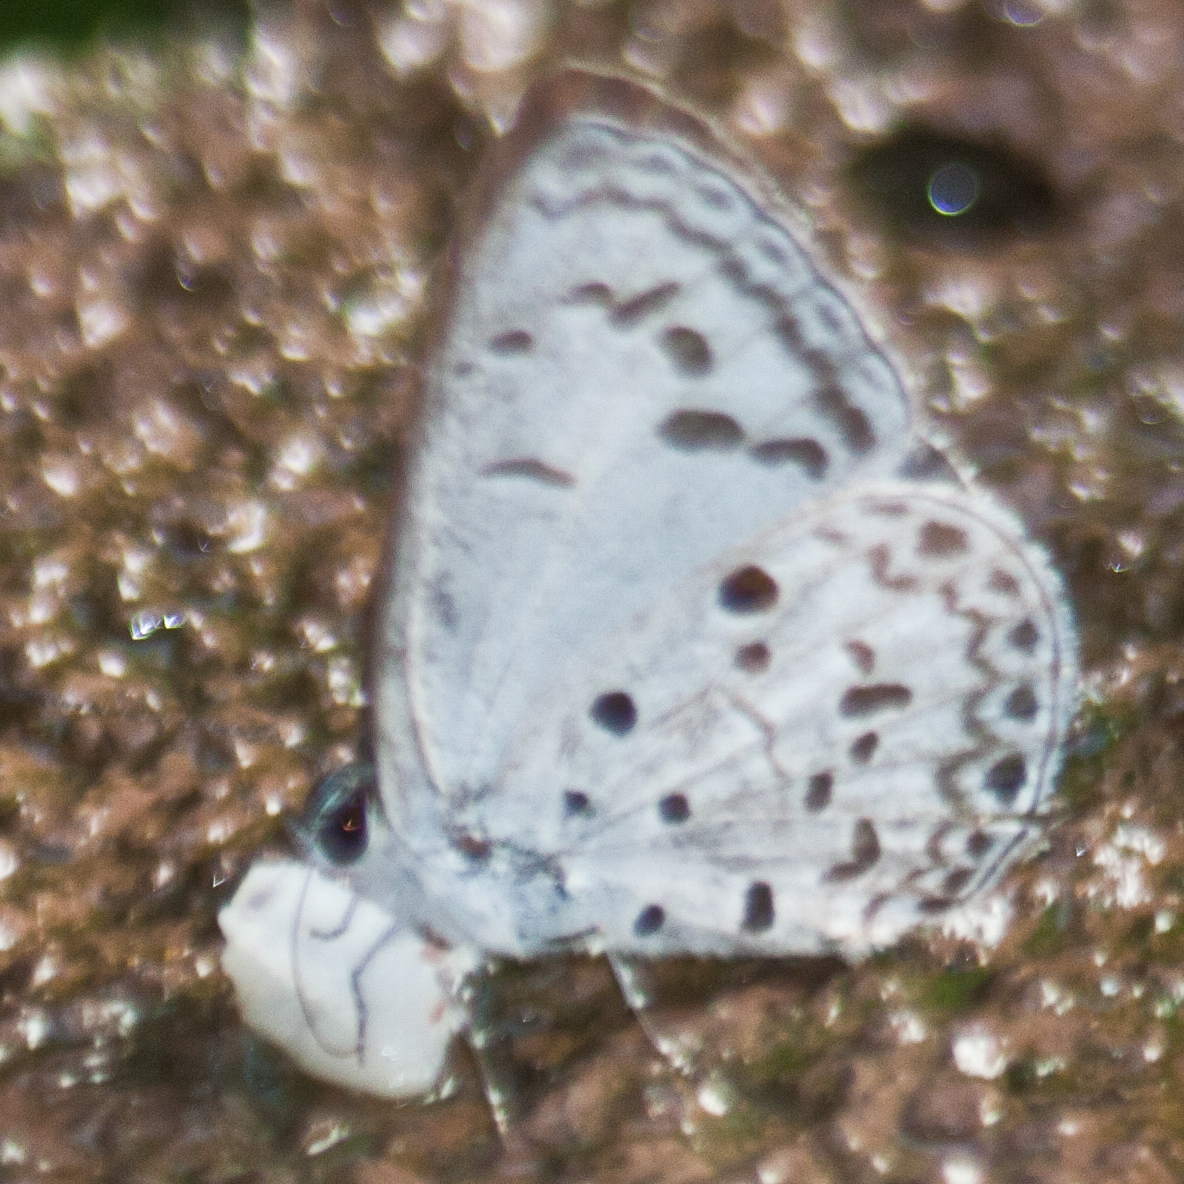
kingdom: Animalia
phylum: Arthropoda
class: Insecta
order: Lepidoptera
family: Lycaenidae
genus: Acytolepis
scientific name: Acytolepis puspa
